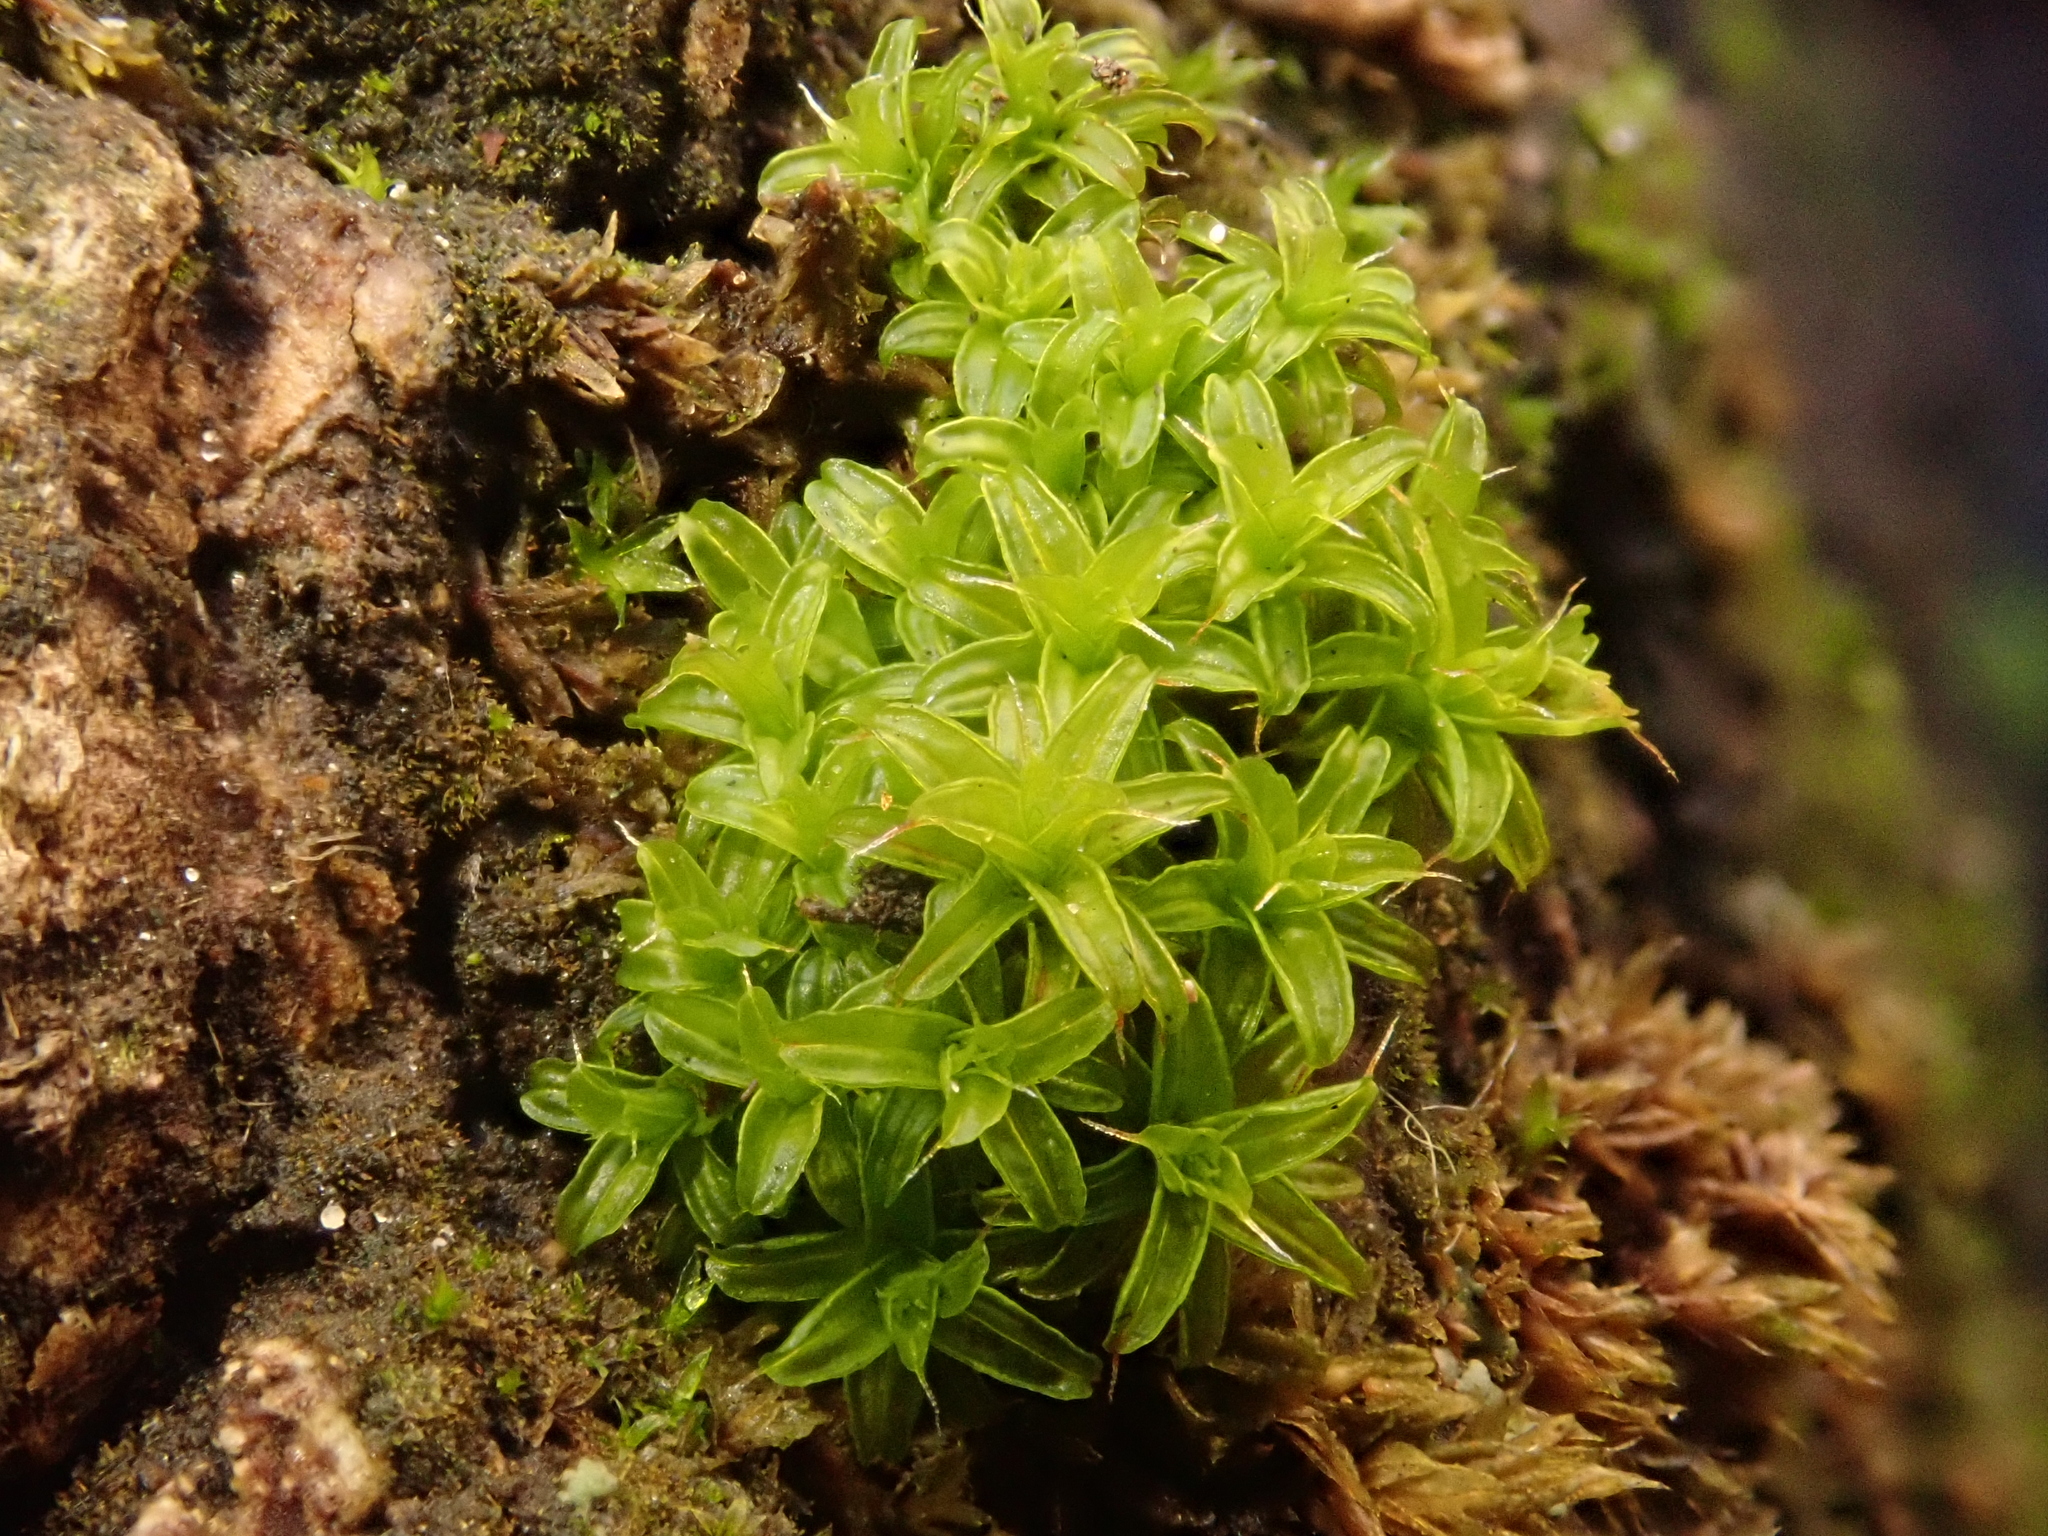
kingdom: Plantae
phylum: Bryophyta
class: Bryopsida
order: Pottiales
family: Pottiaceae
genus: Syntrichia
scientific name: Syntrichia ruralis
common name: Sidewalk screw moss
